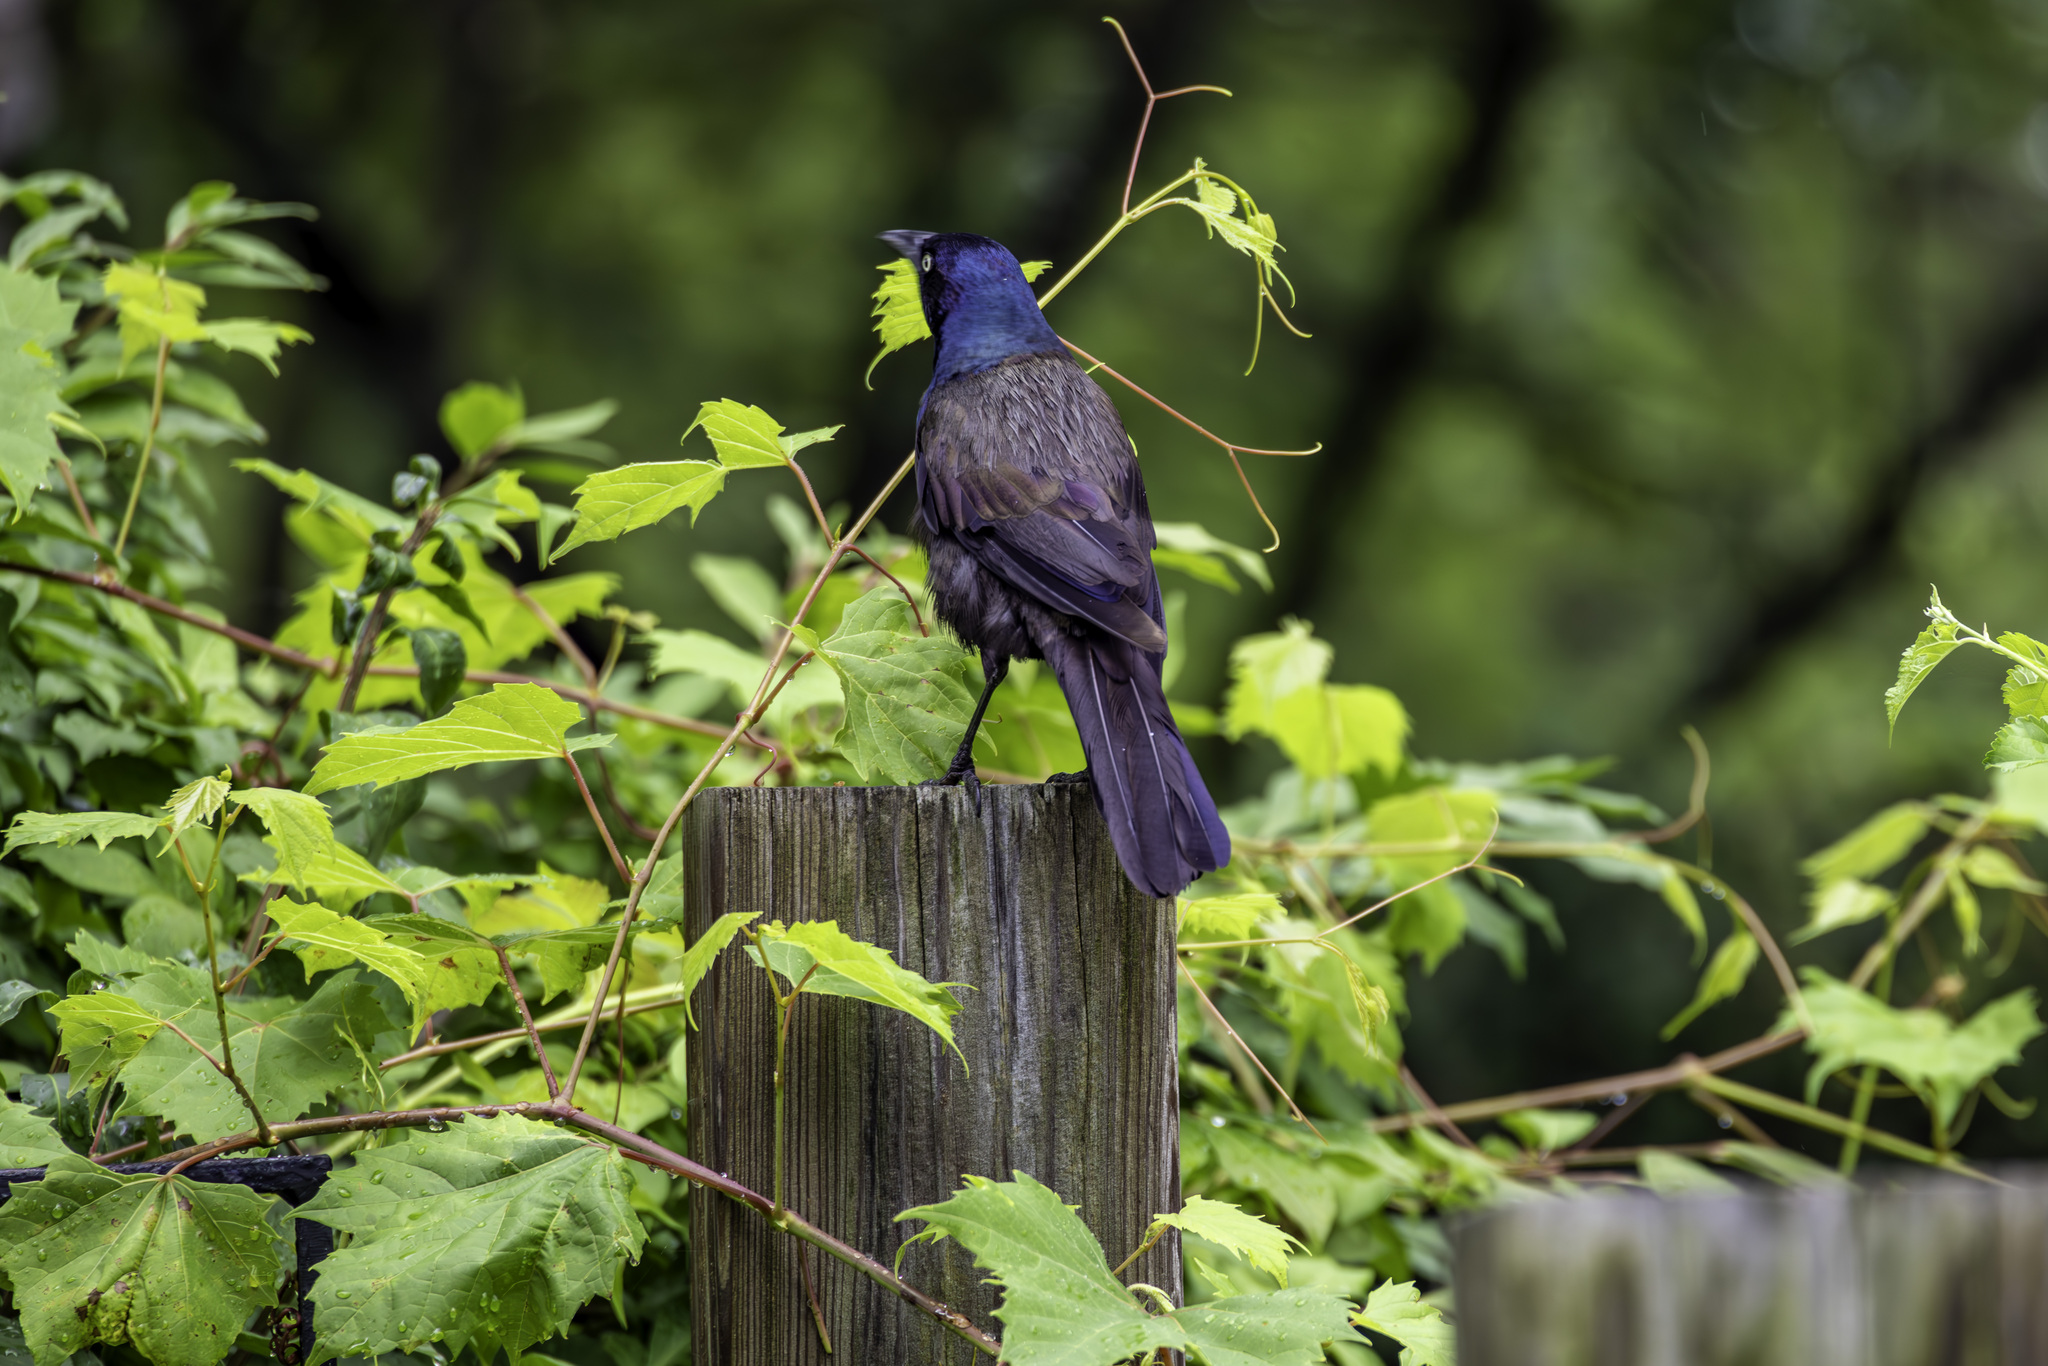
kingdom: Animalia
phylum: Chordata
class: Aves
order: Passeriformes
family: Icteridae
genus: Quiscalus
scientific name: Quiscalus quiscula
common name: Common grackle
